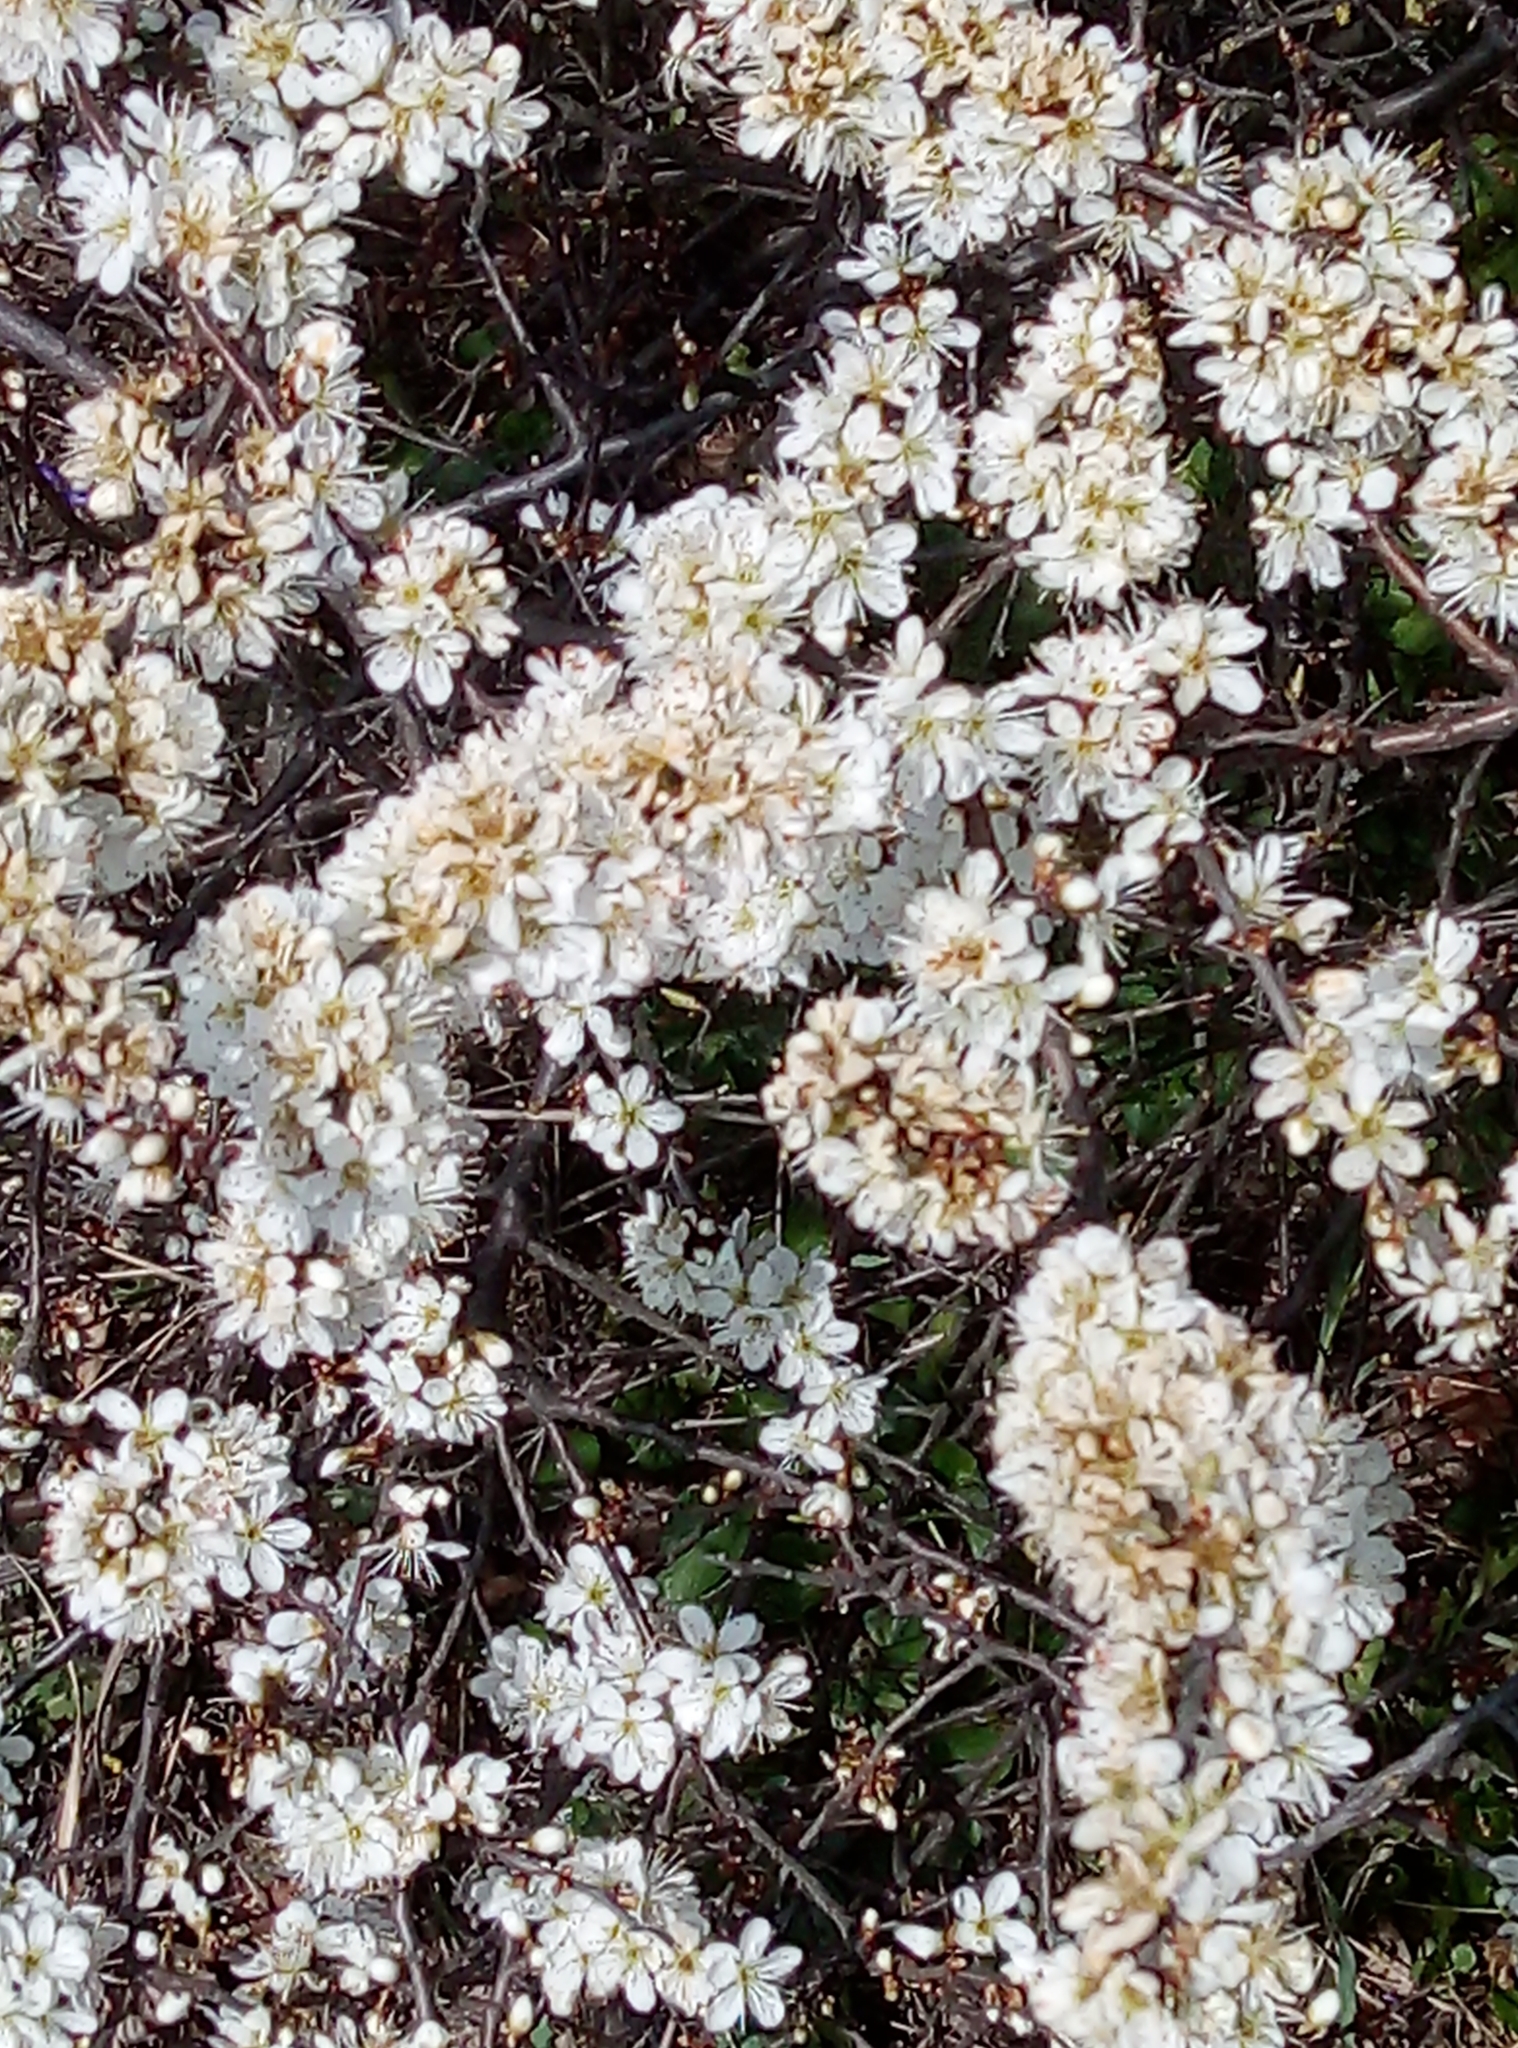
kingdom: Plantae
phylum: Tracheophyta
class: Magnoliopsida
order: Rosales
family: Rosaceae
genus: Prunus
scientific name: Prunus spinosa
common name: Blackthorn
